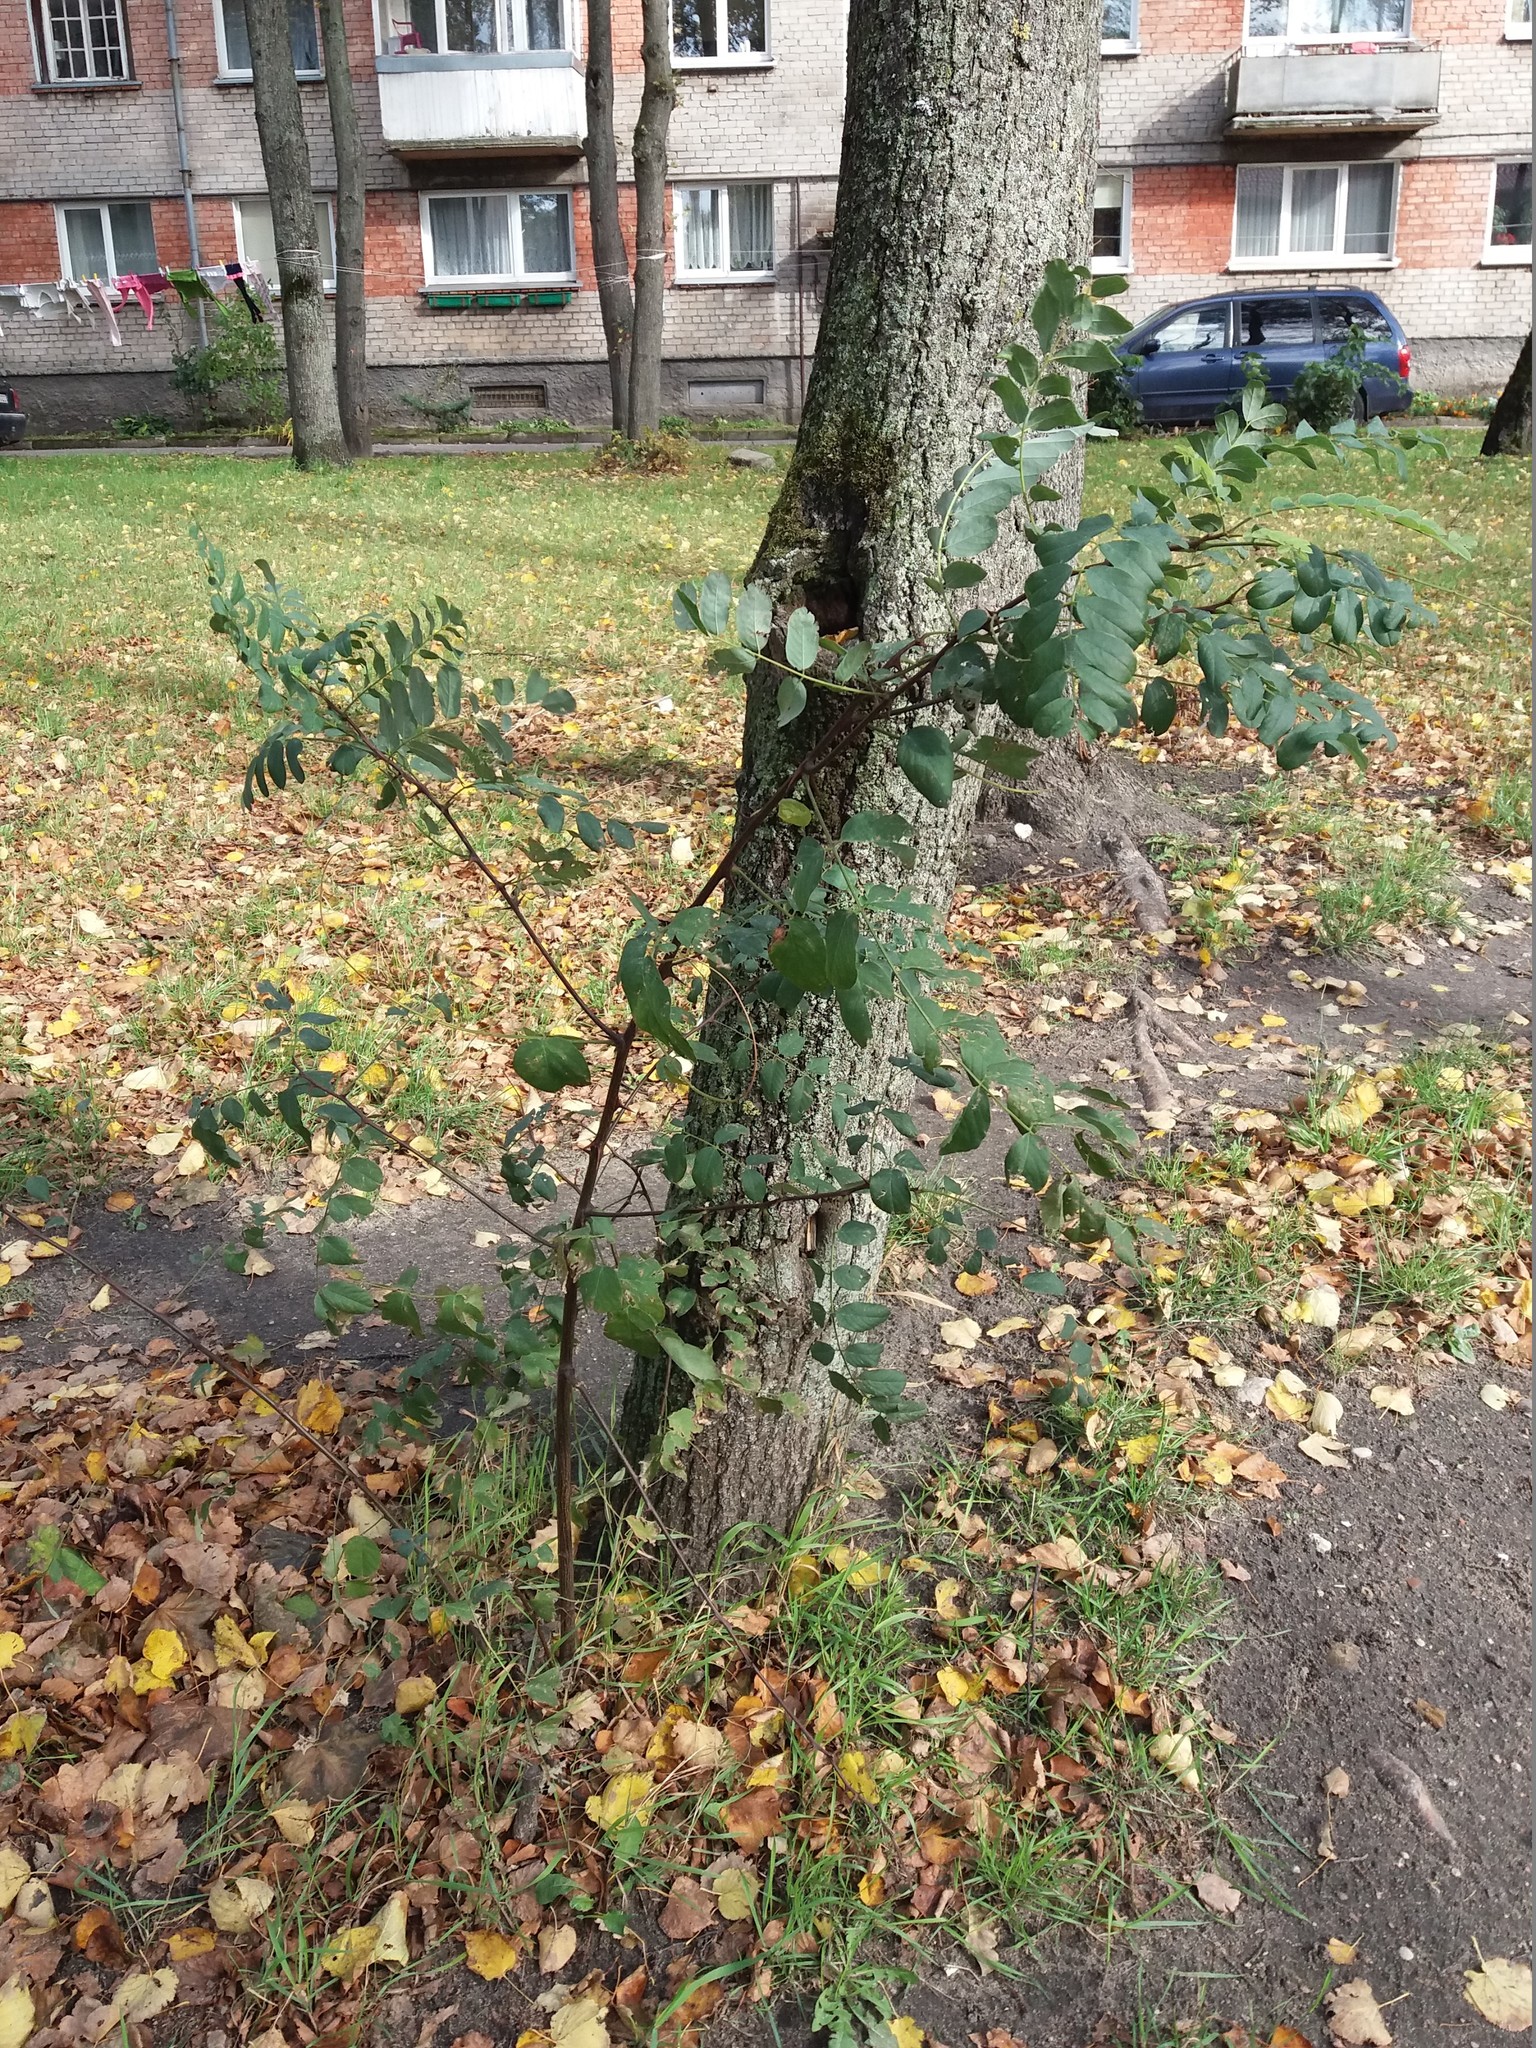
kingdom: Plantae
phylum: Tracheophyta
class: Magnoliopsida
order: Fabales
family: Fabaceae
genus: Robinia
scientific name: Robinia pseudoacacia
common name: Black locust
